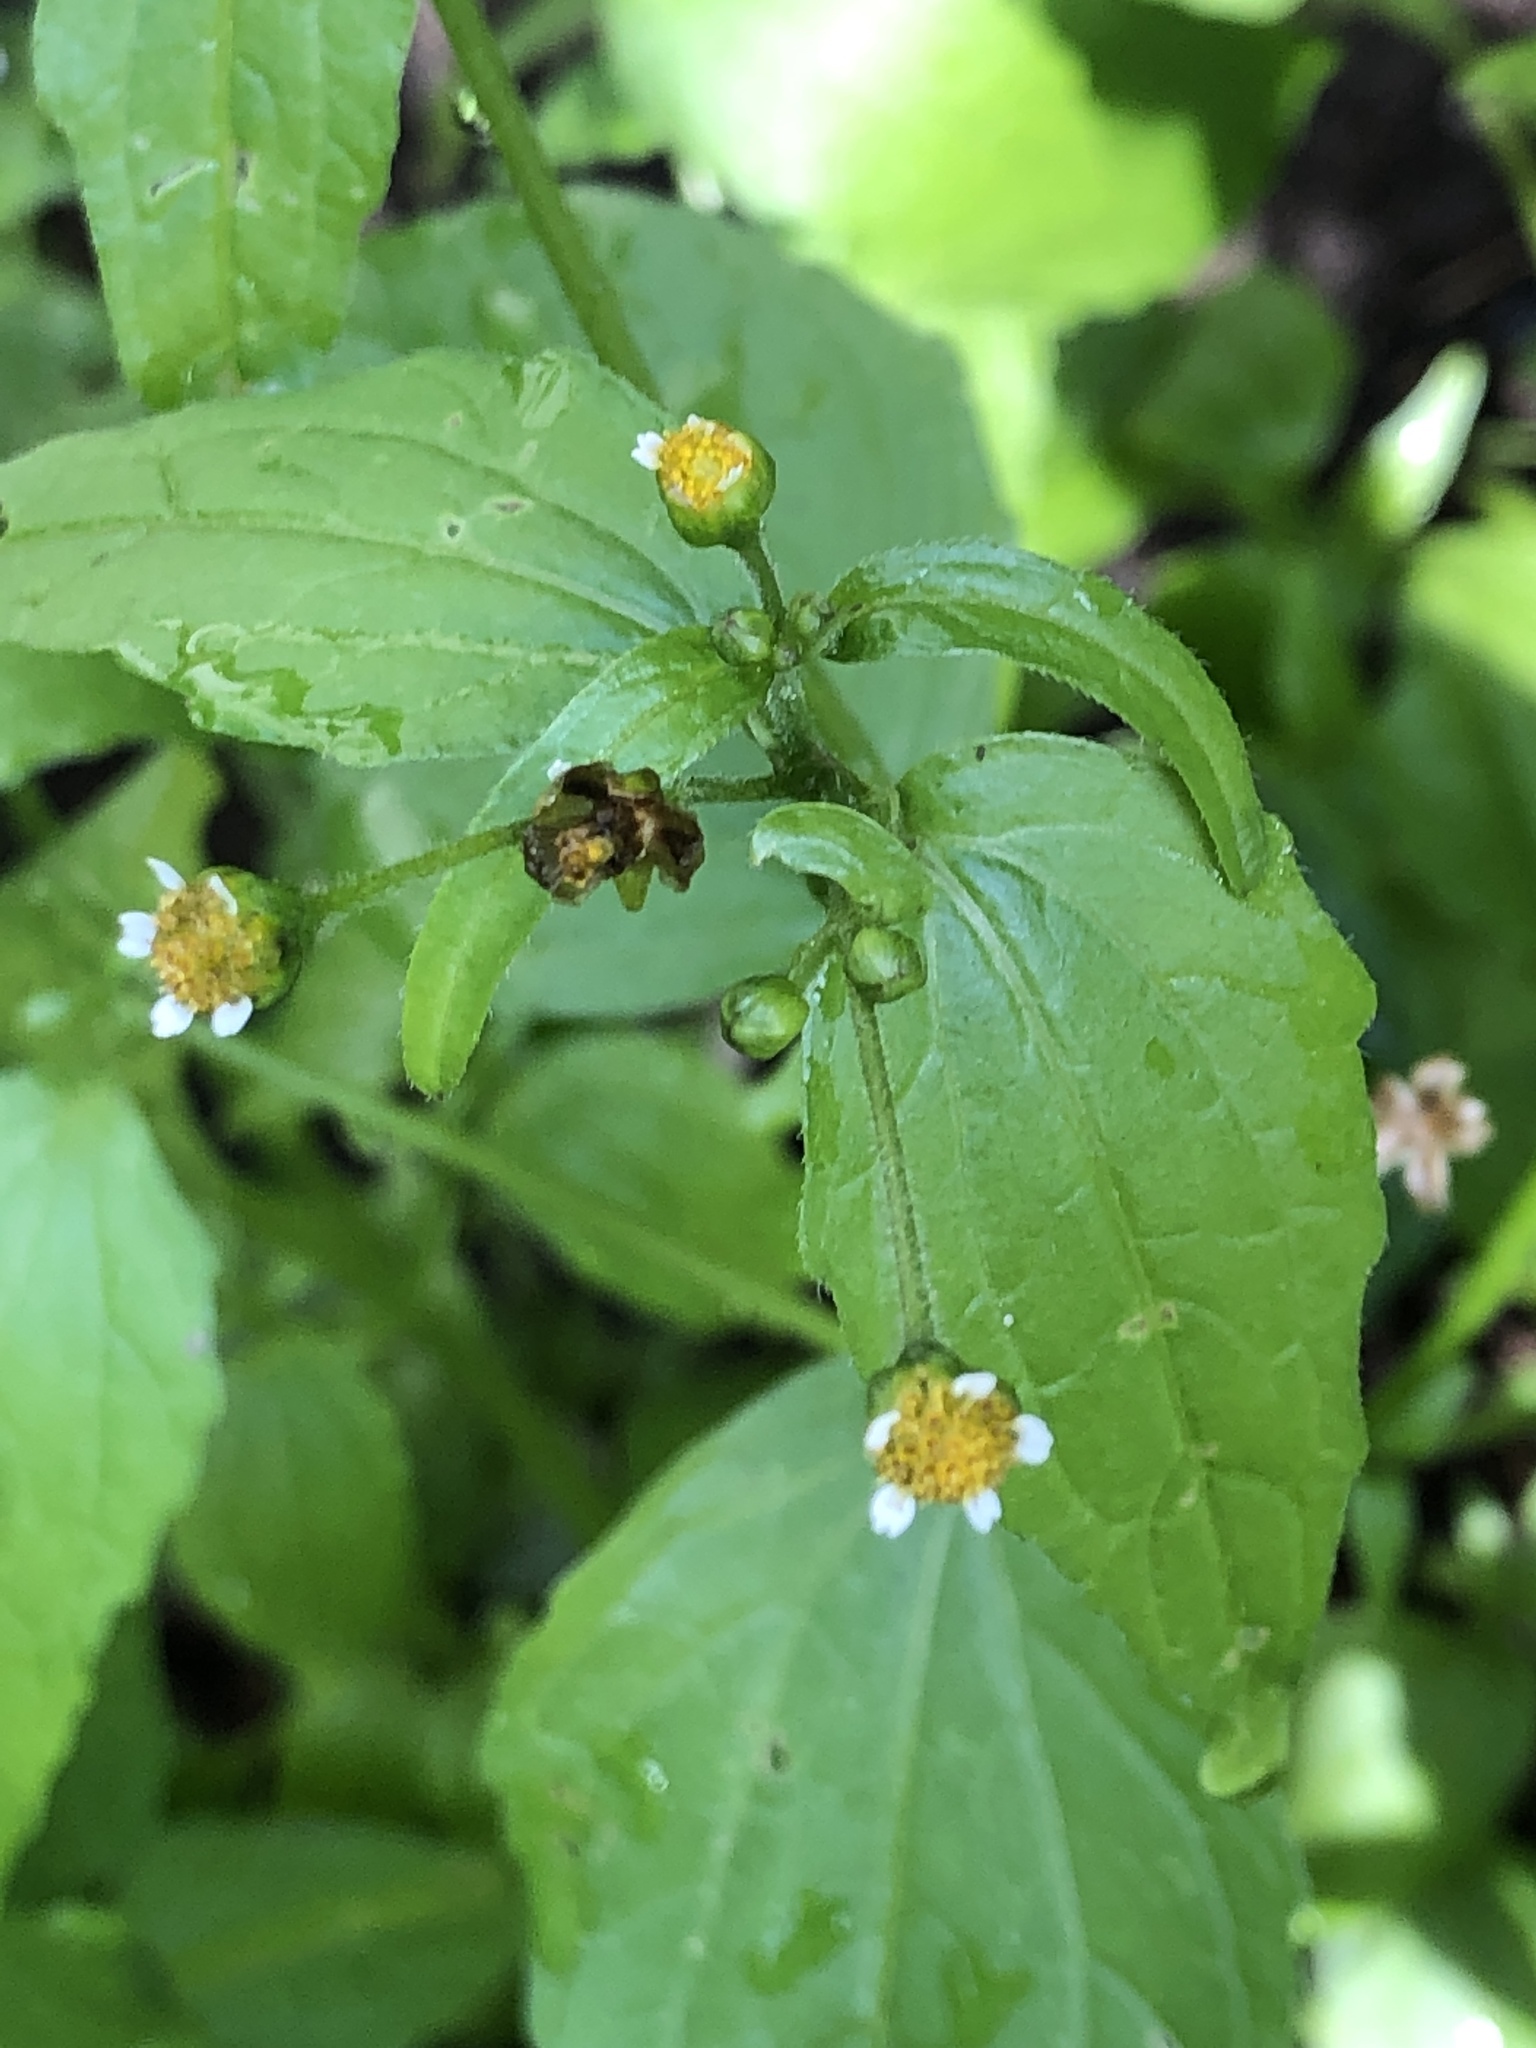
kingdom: Plantae
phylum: Tracheophyta
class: Magnoliopsida
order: Asterales
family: Asteraceae
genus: Galinsoga
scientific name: Galinsoga quadriradiata
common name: Shaggy soldier
